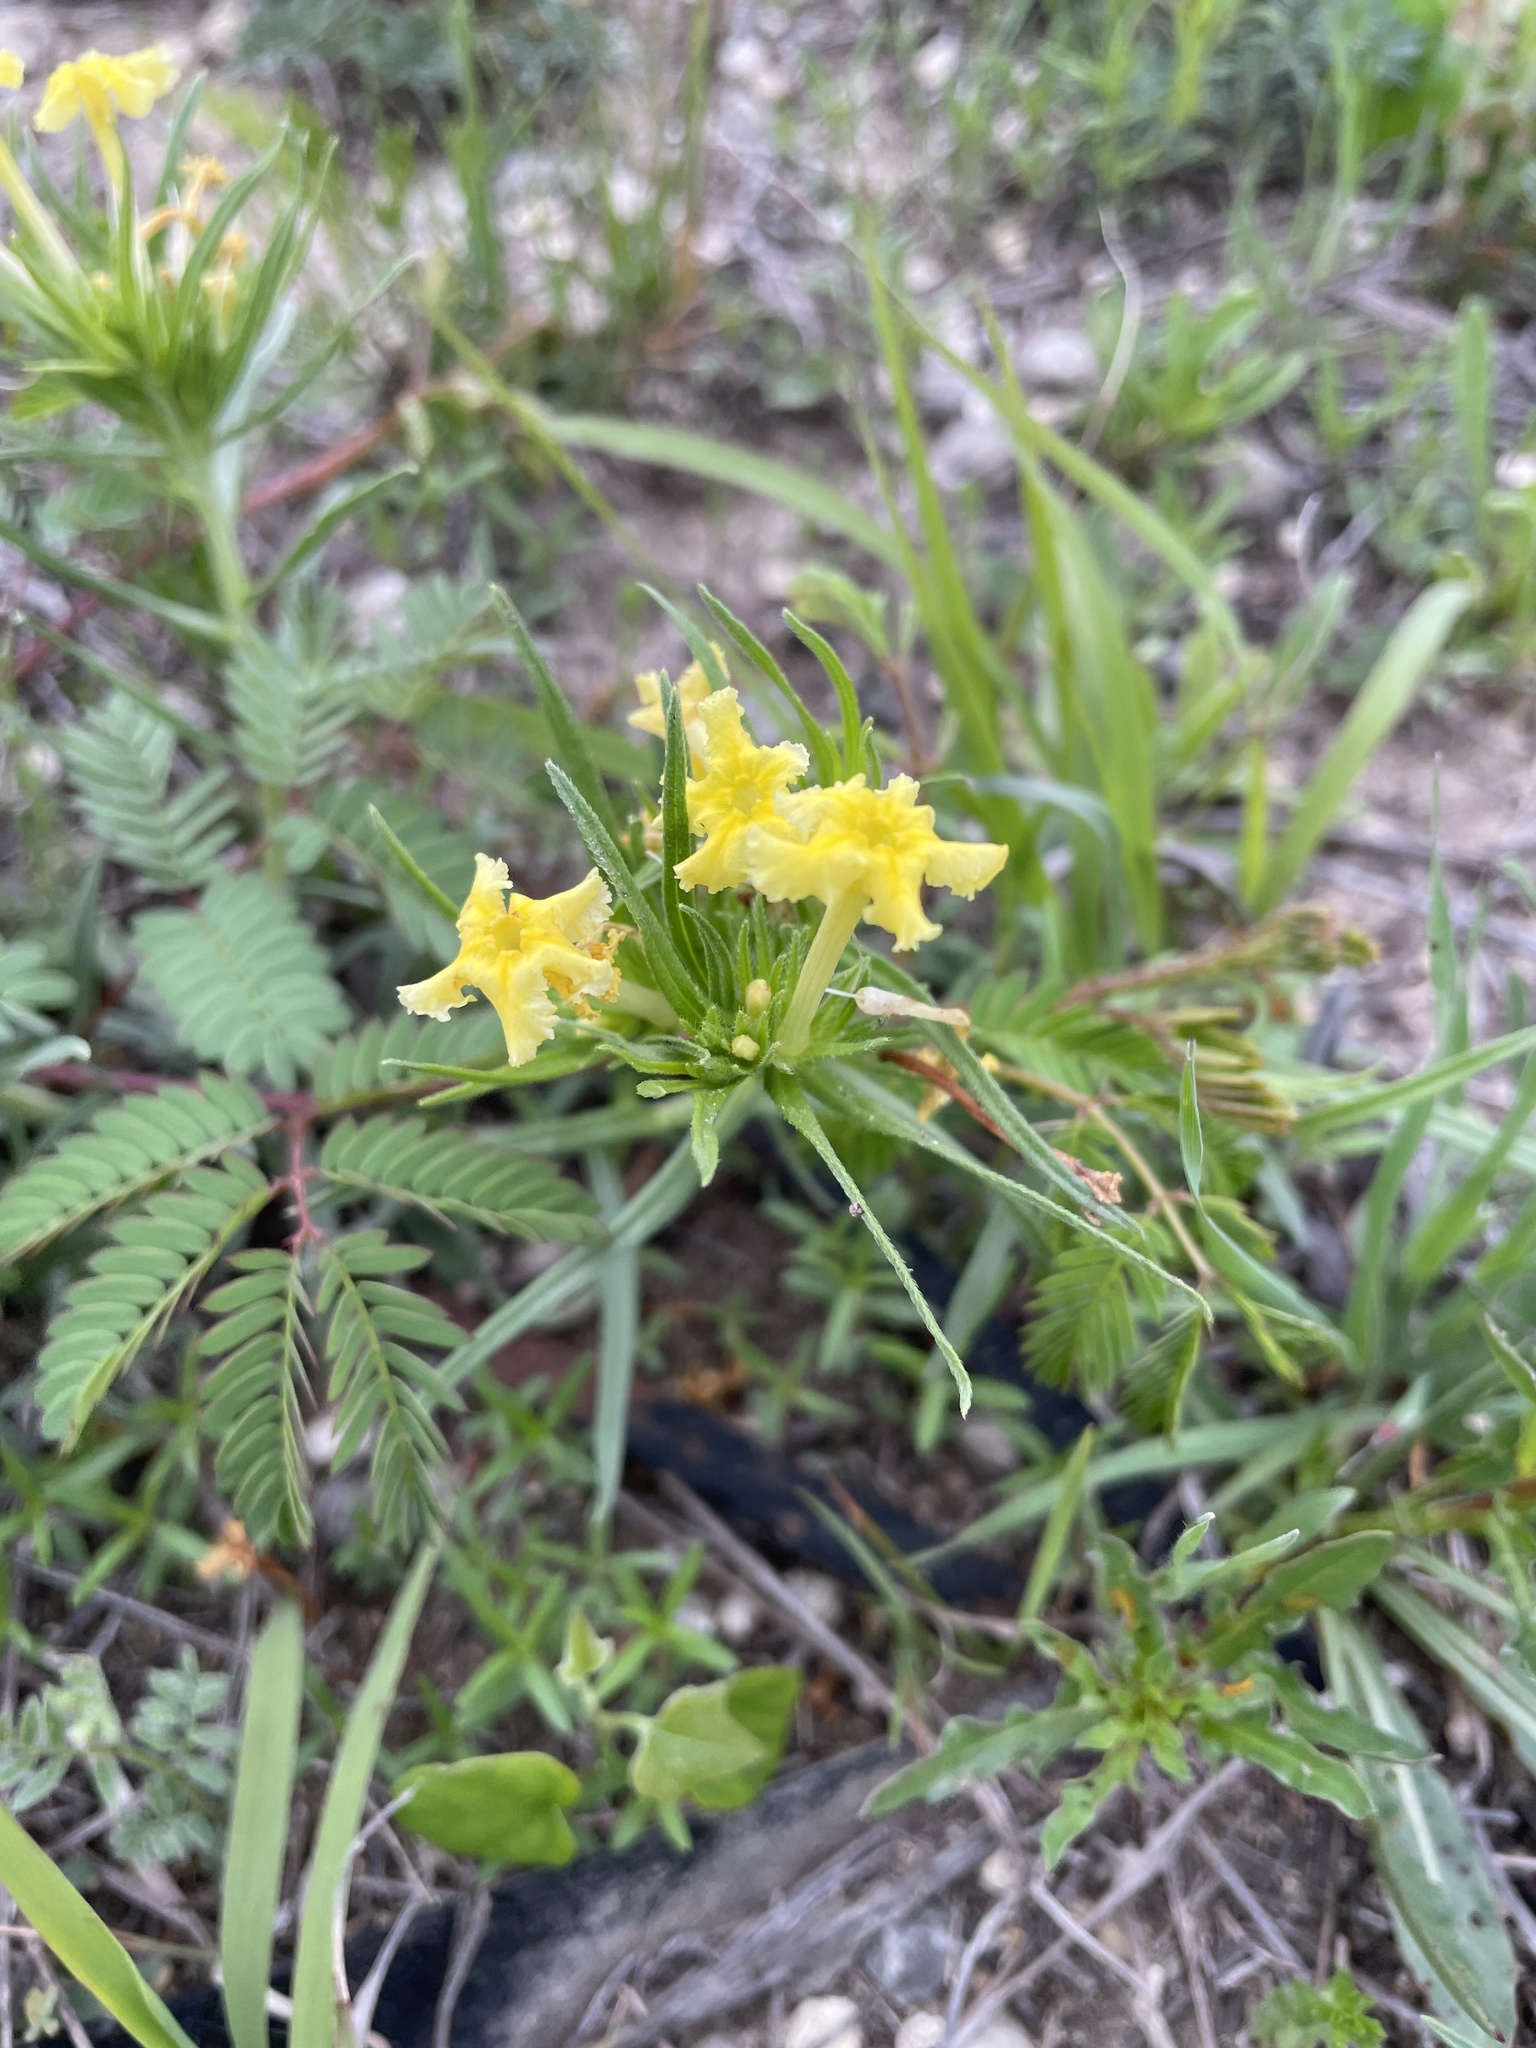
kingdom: Plantae
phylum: Tracheophyta
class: Magnoliopsida
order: Boraginales
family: Boraginaceae
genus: Lithospermum
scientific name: Lithospermum incisum
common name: Fringed gromwell
